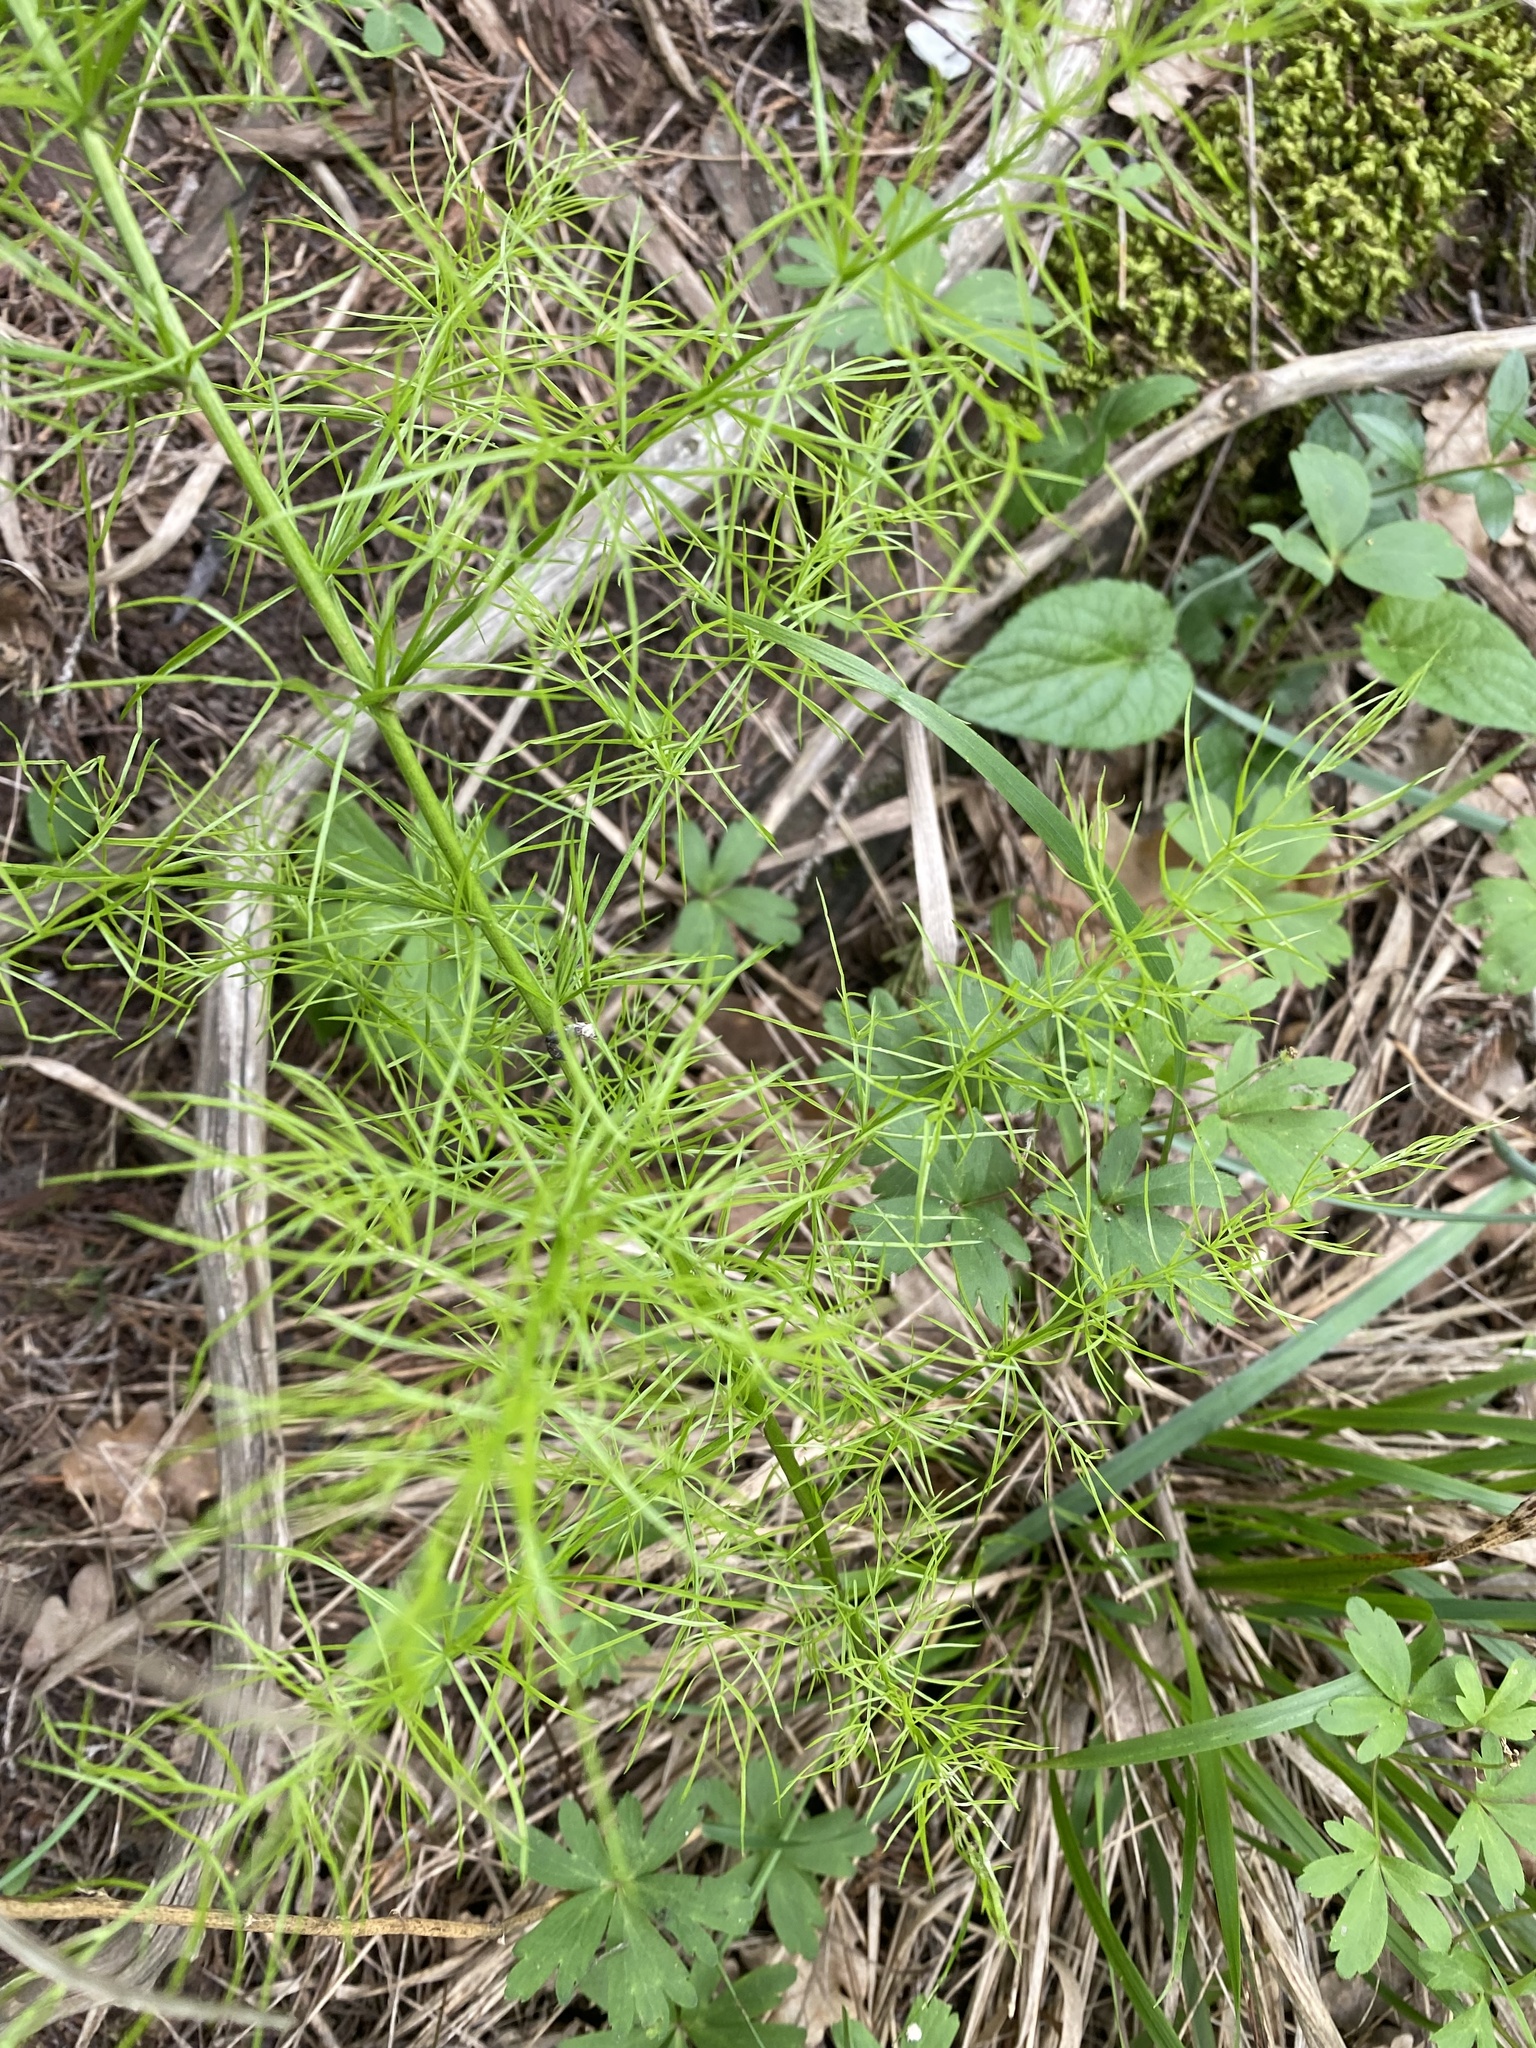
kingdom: Plantae
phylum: Tracheophyta
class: Liliopsida
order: Asparagales
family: Asparagaceae
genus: Asparagus
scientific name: Asparagus verticillatus
